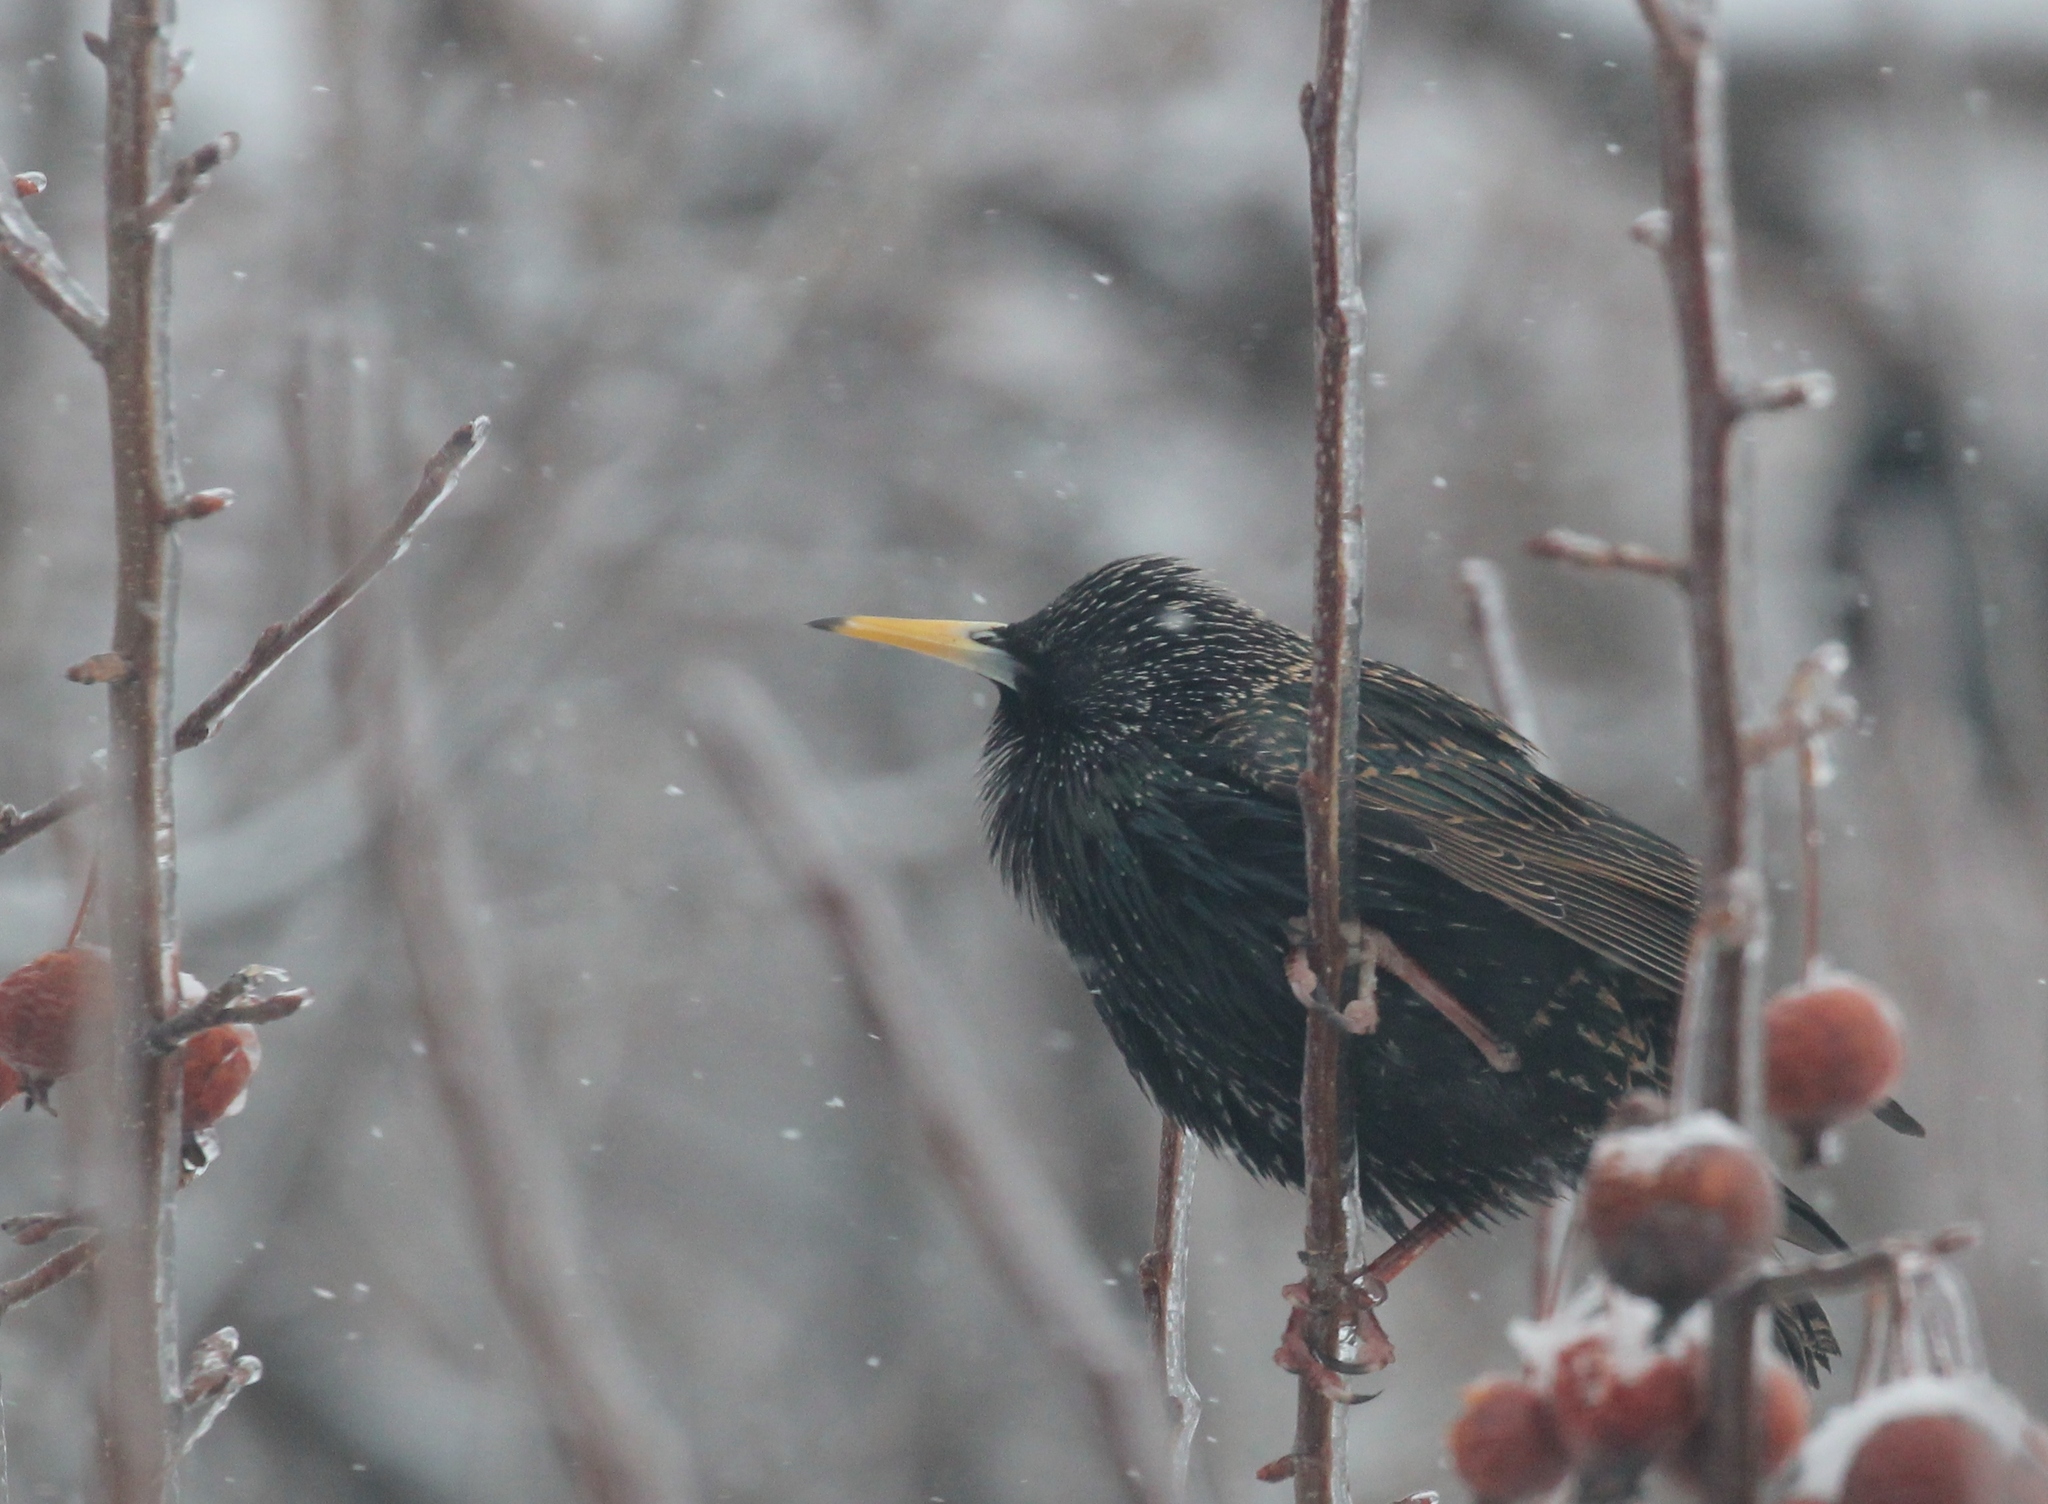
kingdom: Animalia
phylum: Chordata
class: Aves
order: Passeriformes
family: Sturnidae
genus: Sturnus
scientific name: Sturnus vulgaris
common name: Common starling
